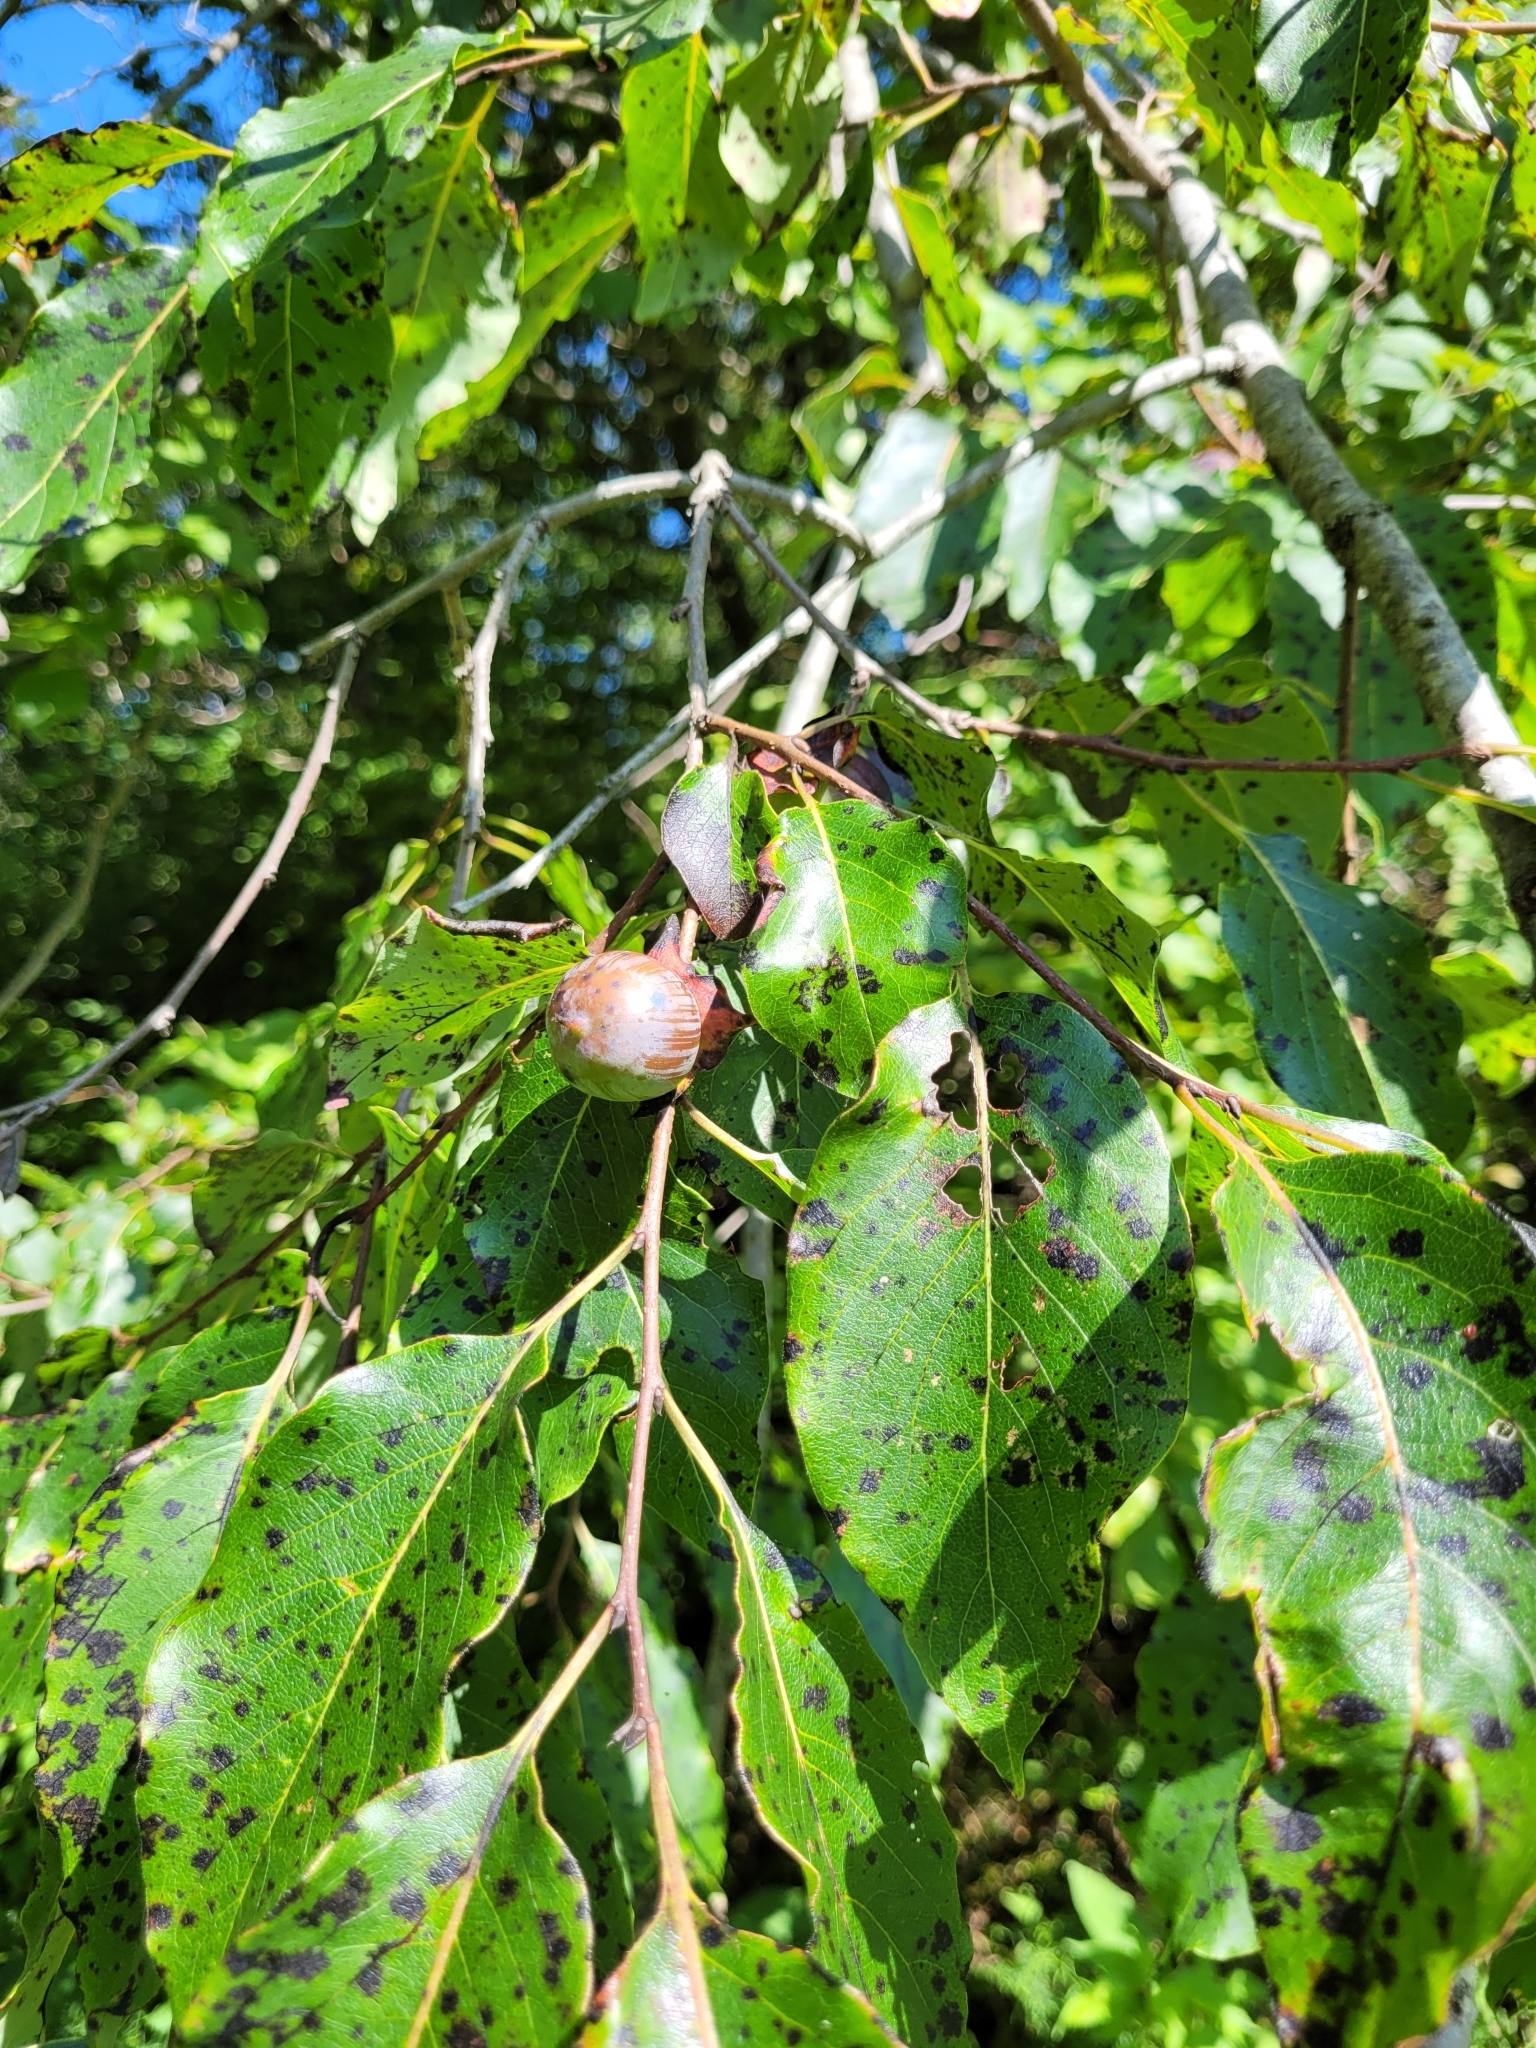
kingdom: Plantae
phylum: Tracheophyta
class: Magnoliopsida
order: Ericales
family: Ebenaceae
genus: Diospyros
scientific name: Diospyros virginiana
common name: Persimmon
